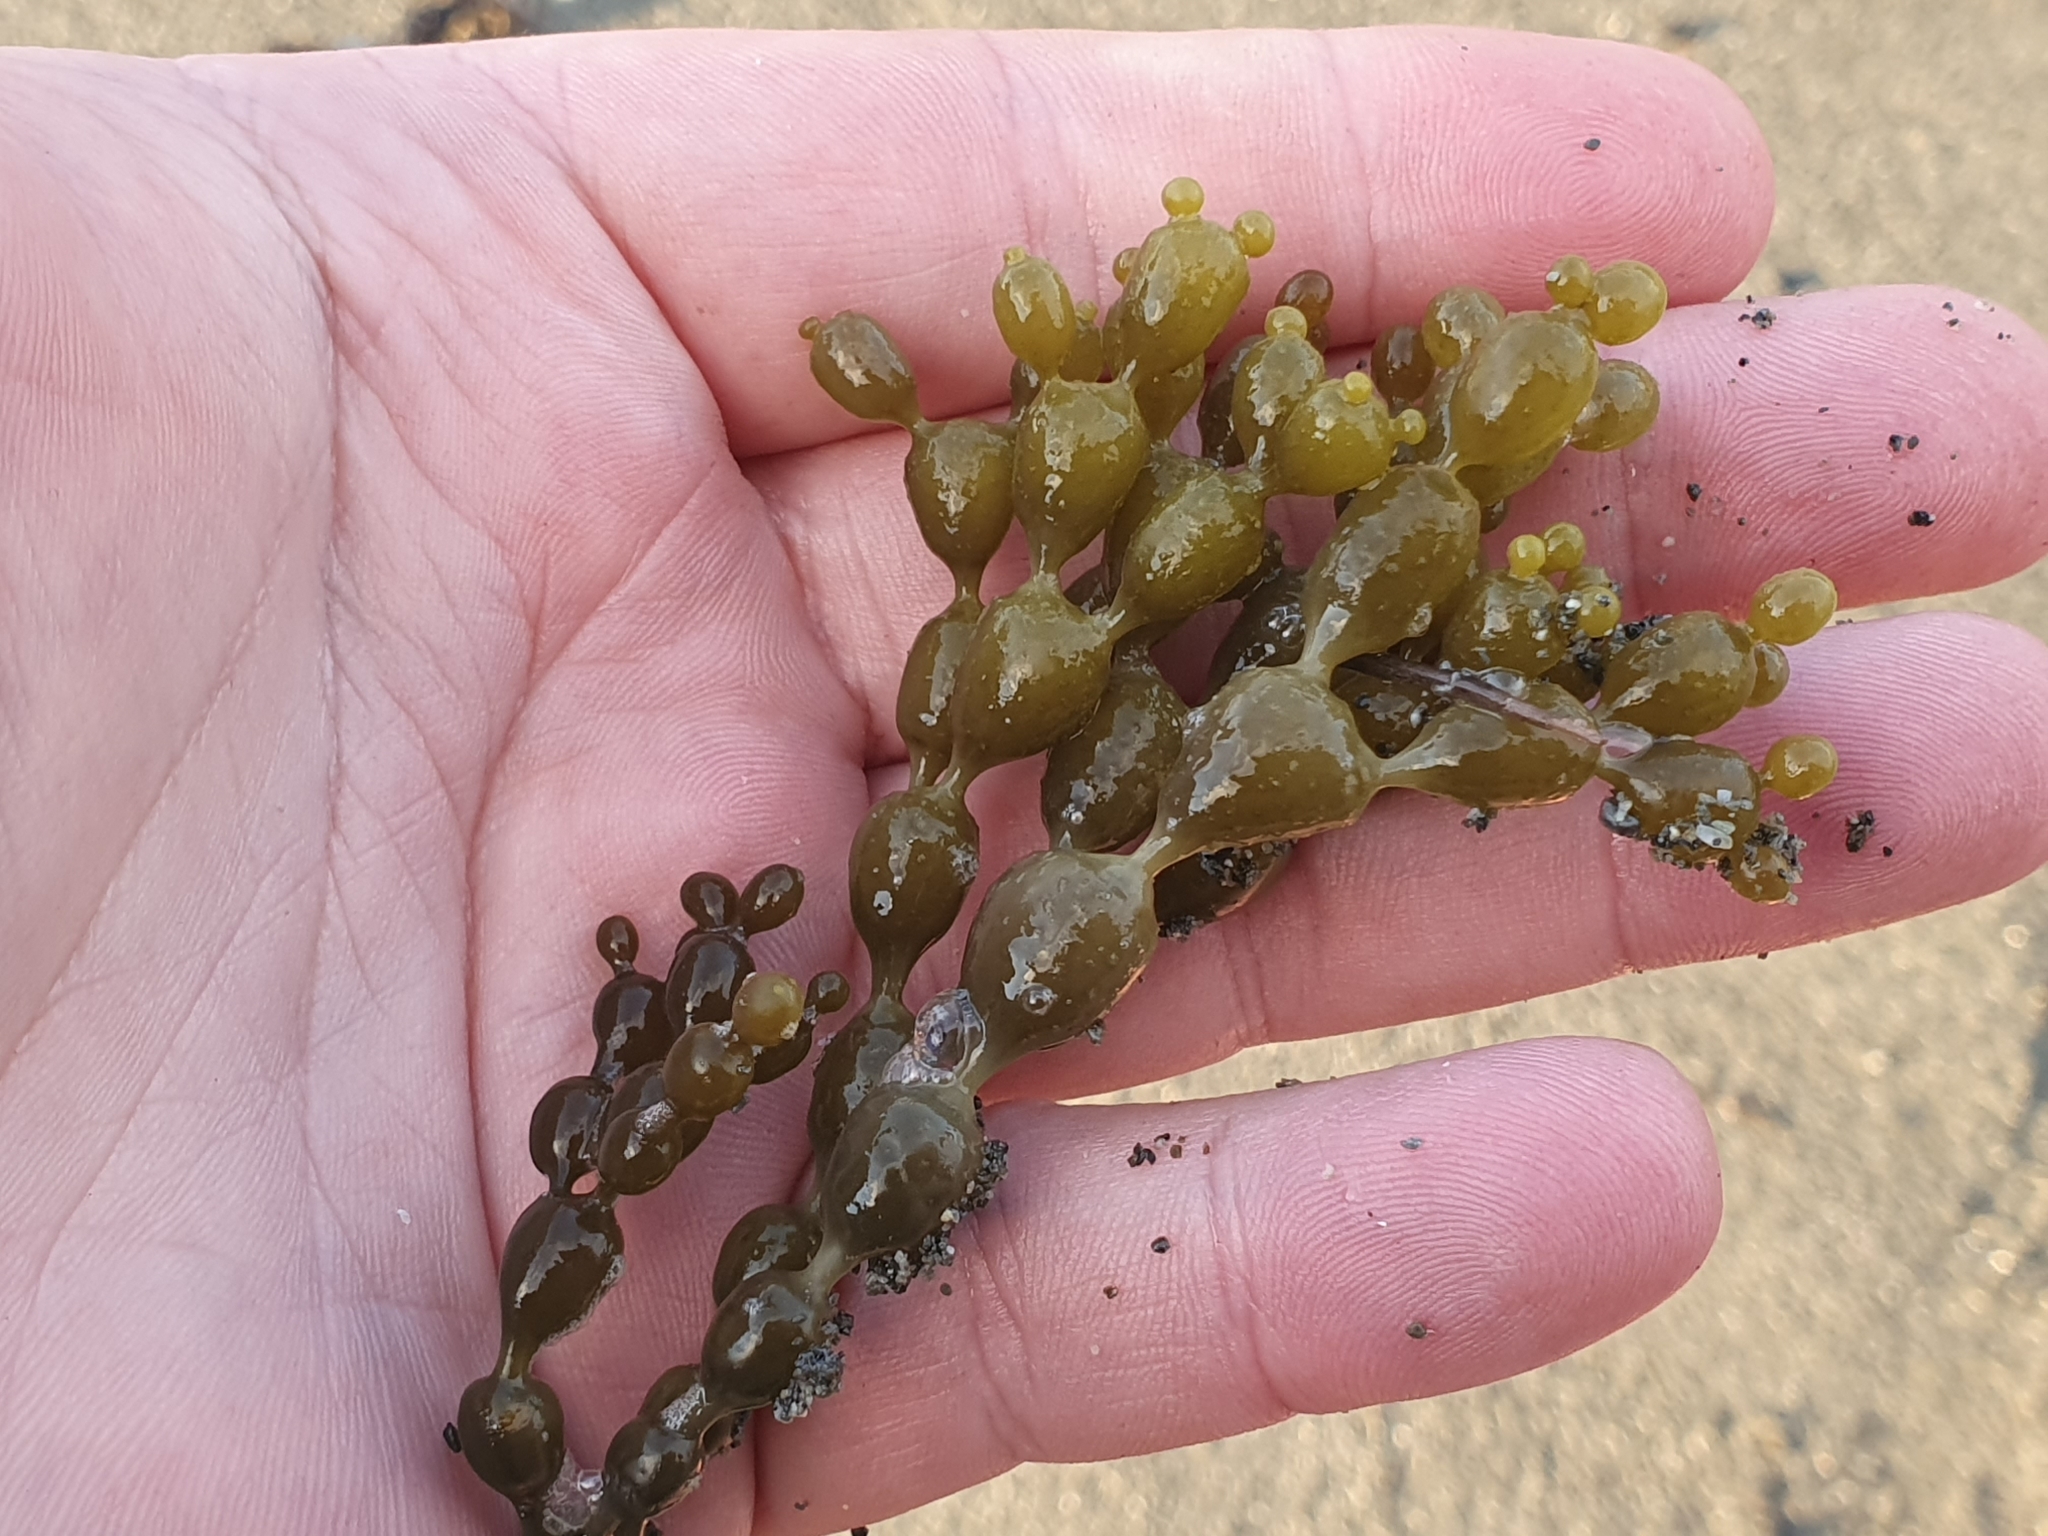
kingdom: Chromista
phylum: Ochrophyta
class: Phaeophyceae
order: Fucales
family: Hormosiraceae
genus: Hormosira
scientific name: Hormosira banksii
